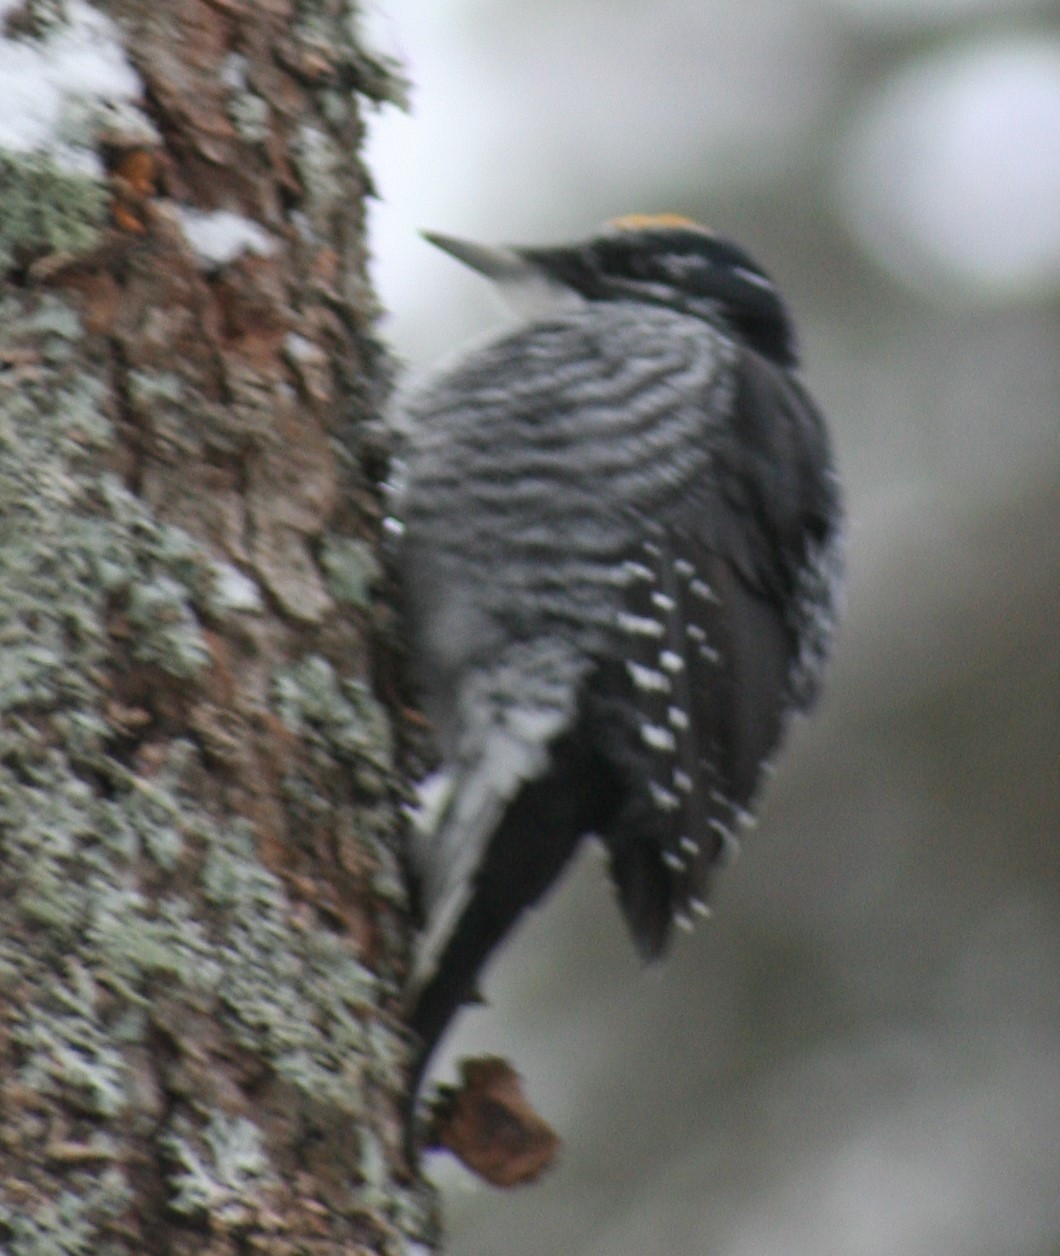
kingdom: Animalia
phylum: Chordata
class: Aves
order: Piciformes
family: Picidae
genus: Picoides
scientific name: Picoides dorsalis
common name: American three-toed woodpecker
